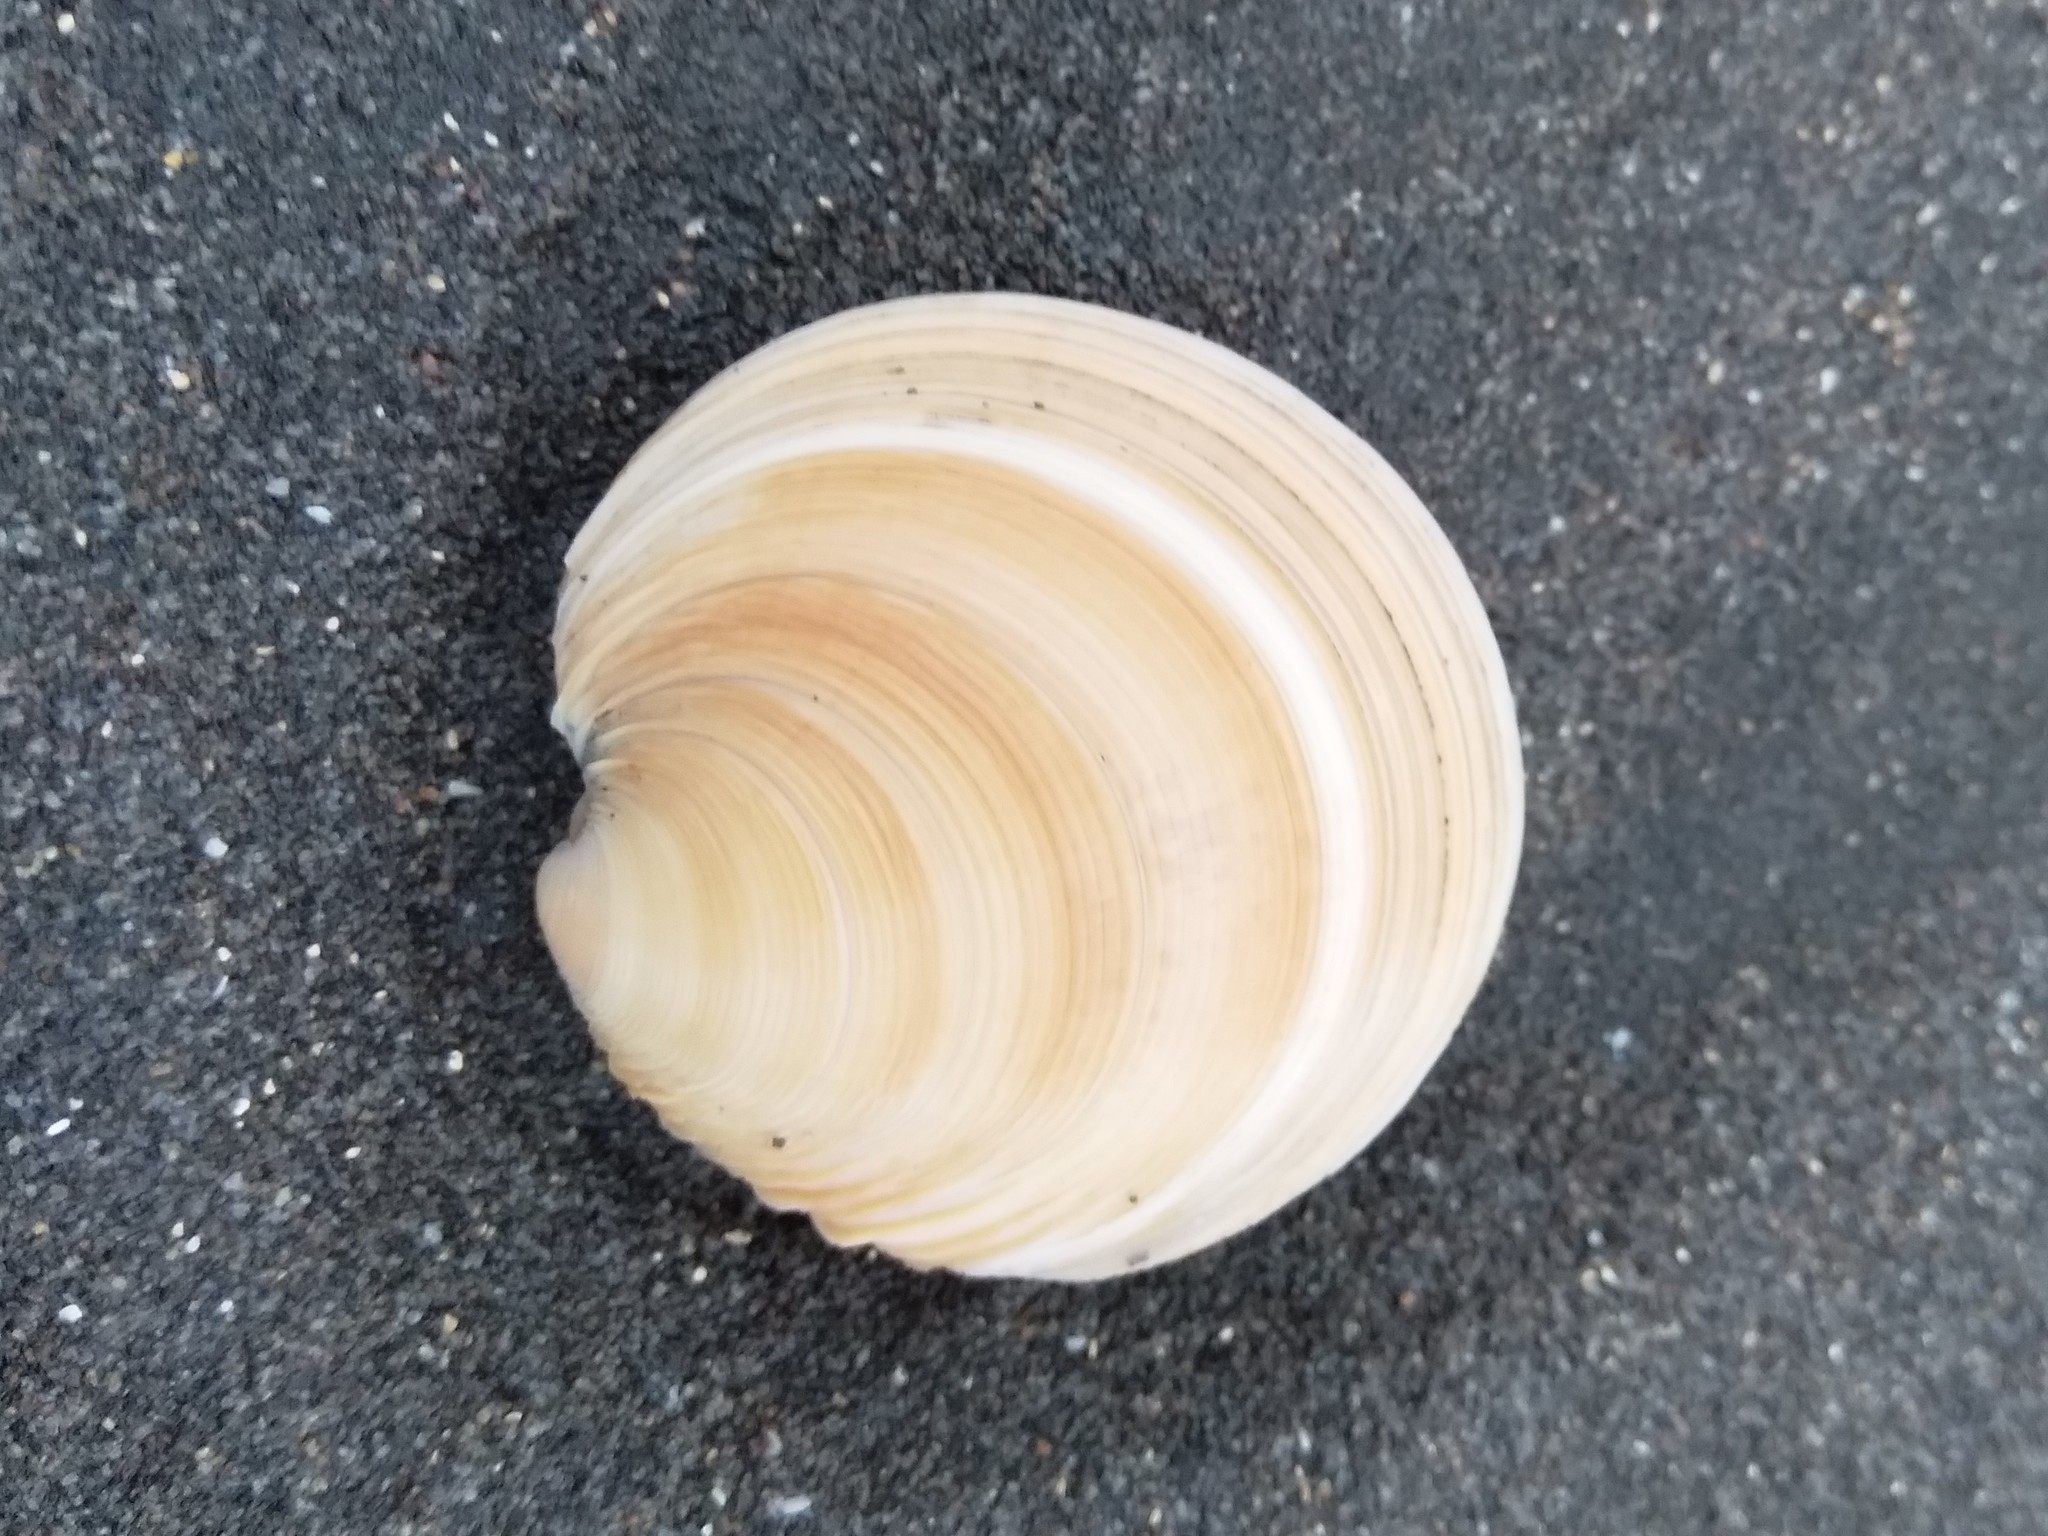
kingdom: Animalia
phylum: Mollusca
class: Bivalvia
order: Venerida
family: Veneridae
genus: Dosinia
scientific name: Dosinia anus
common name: Old-woman dosinia
